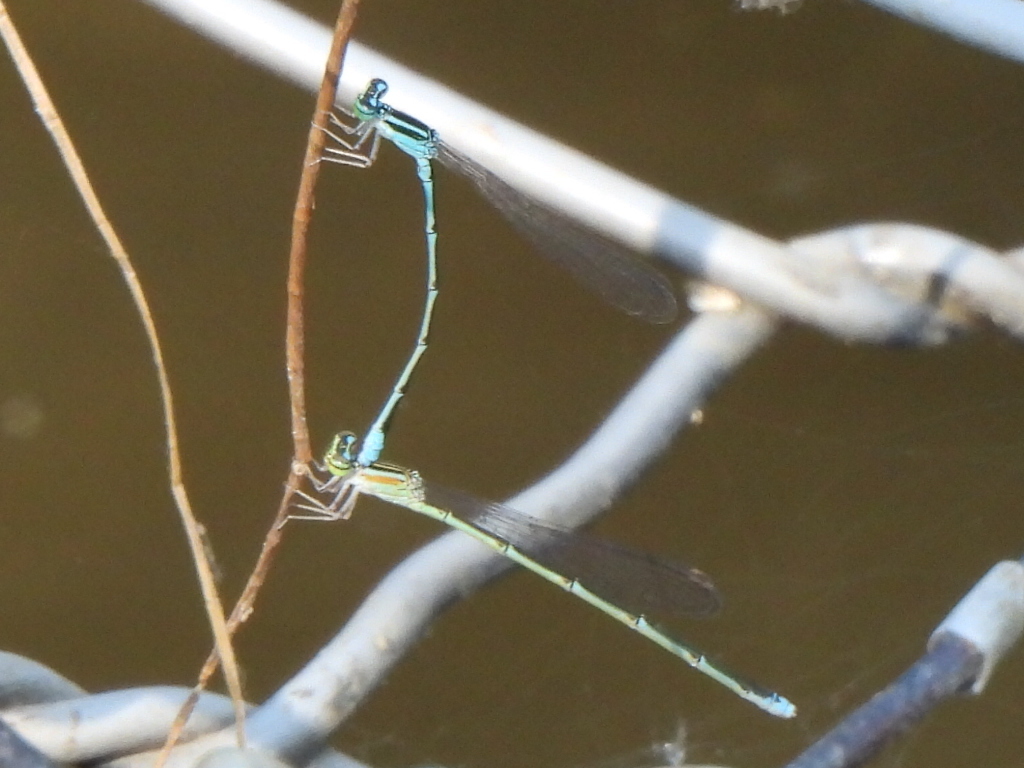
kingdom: Animalia
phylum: Arthropoda
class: Insecta
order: Odonata
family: Coenagrionidae
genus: Enallagma
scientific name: Enallagma exsulans
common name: Stream bluet
